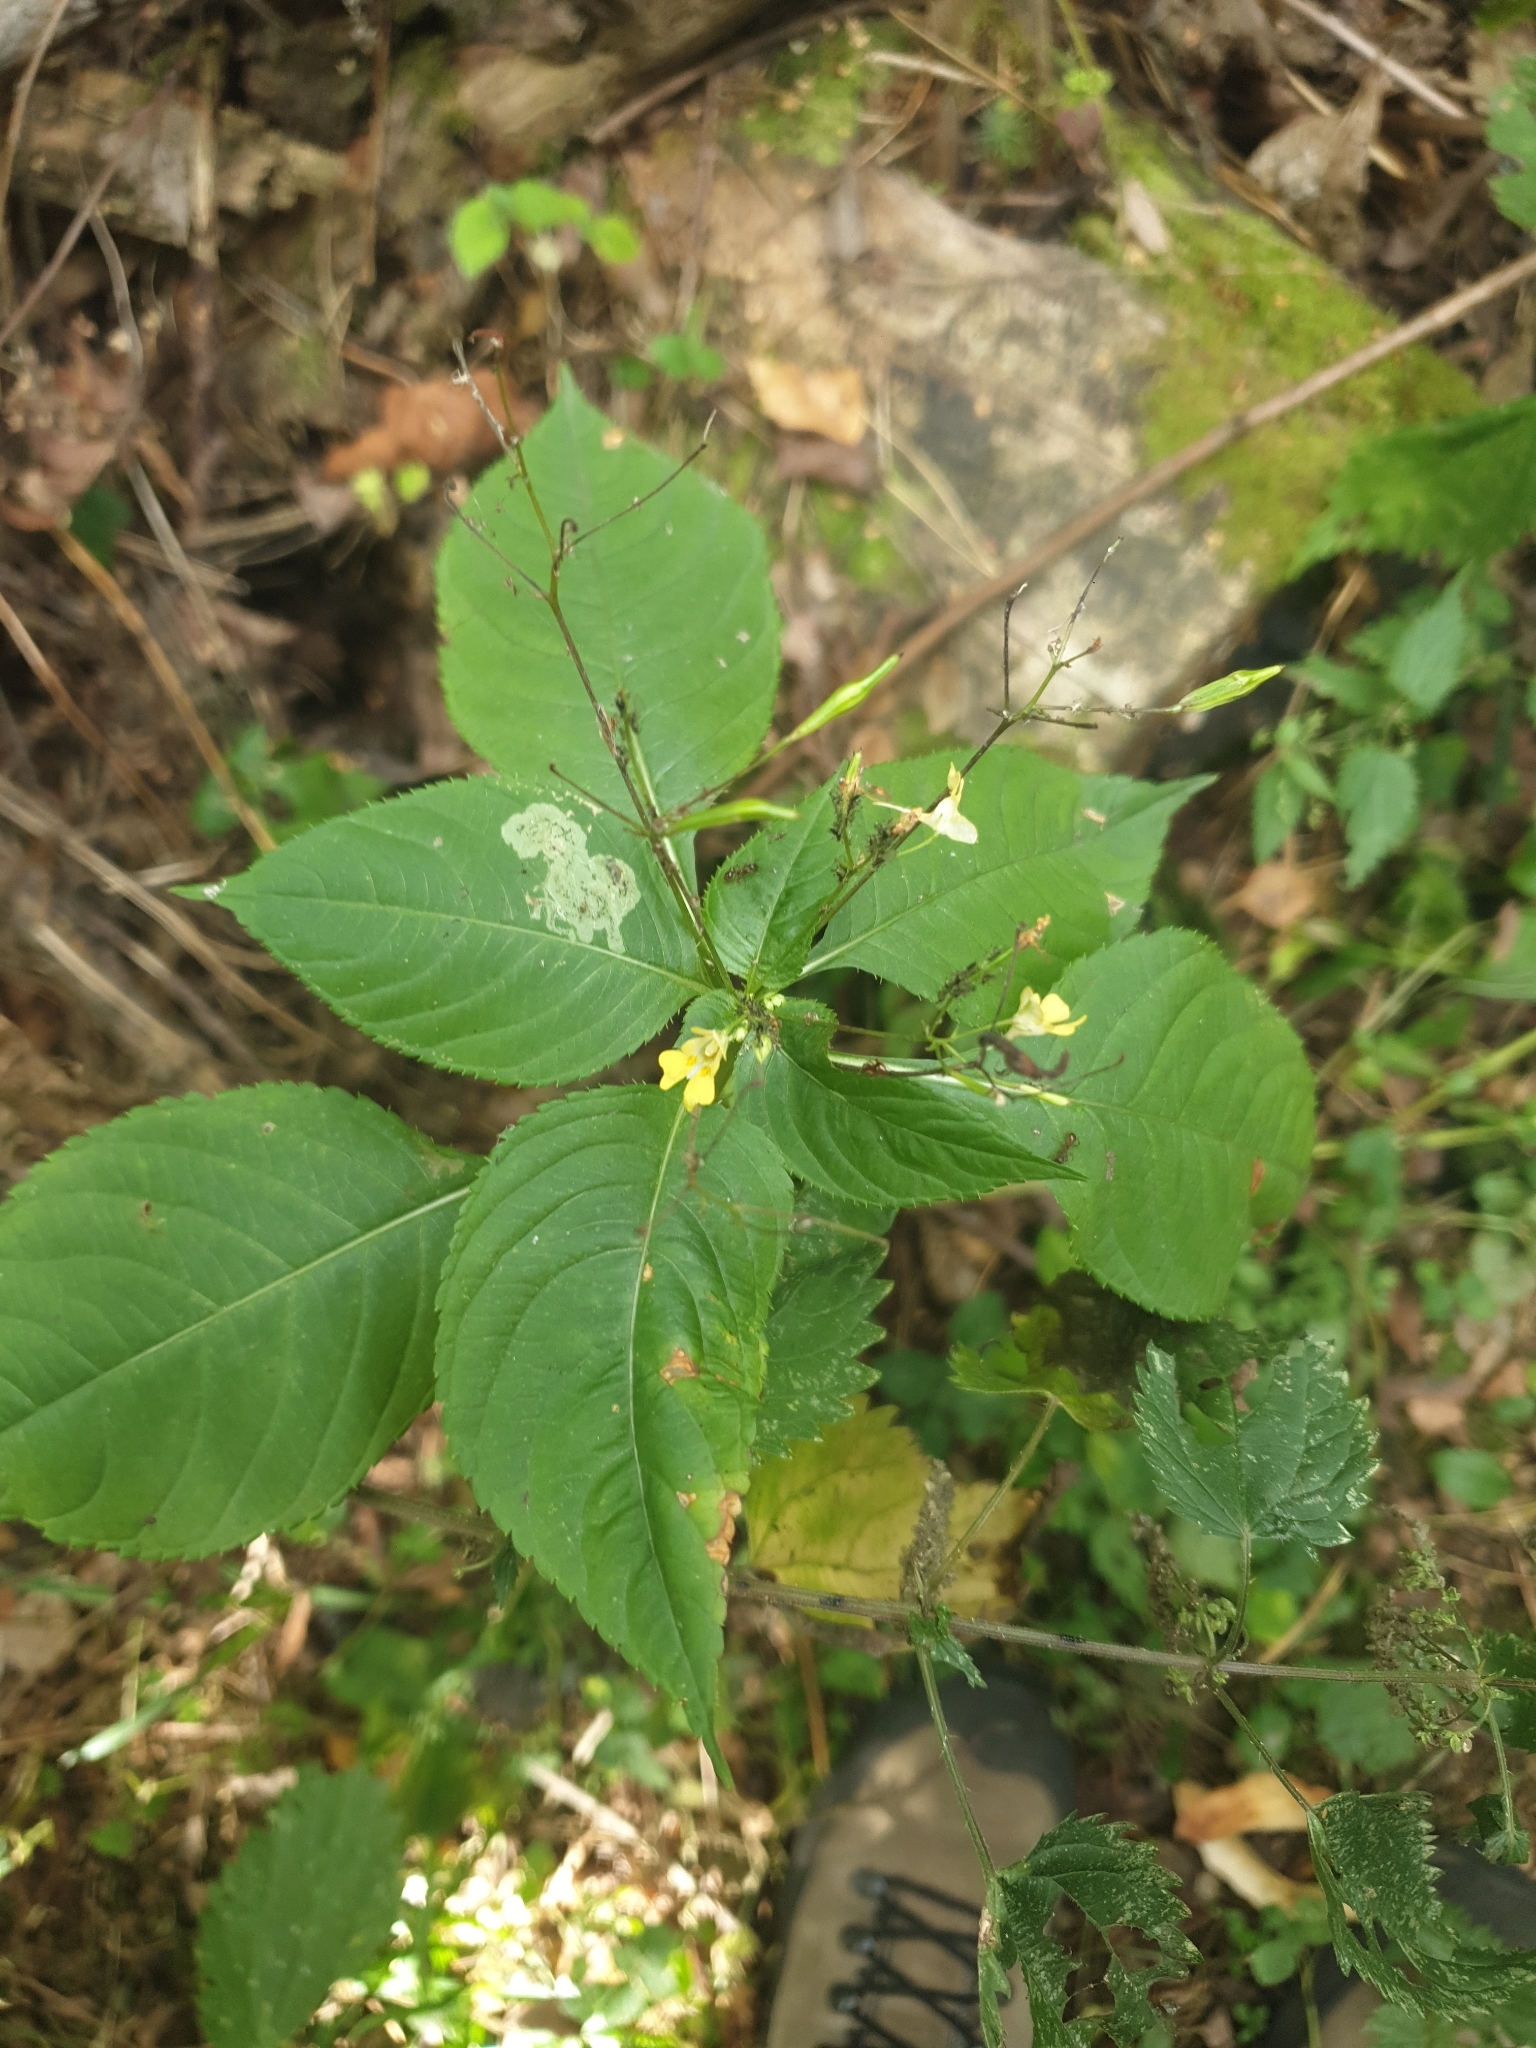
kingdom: Plantae
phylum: Tracheophyta
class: Magnoliopsida
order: Ericales
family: Balsaminaceae
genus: Impatiens
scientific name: Impatiens parviflora
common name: Small balsam
